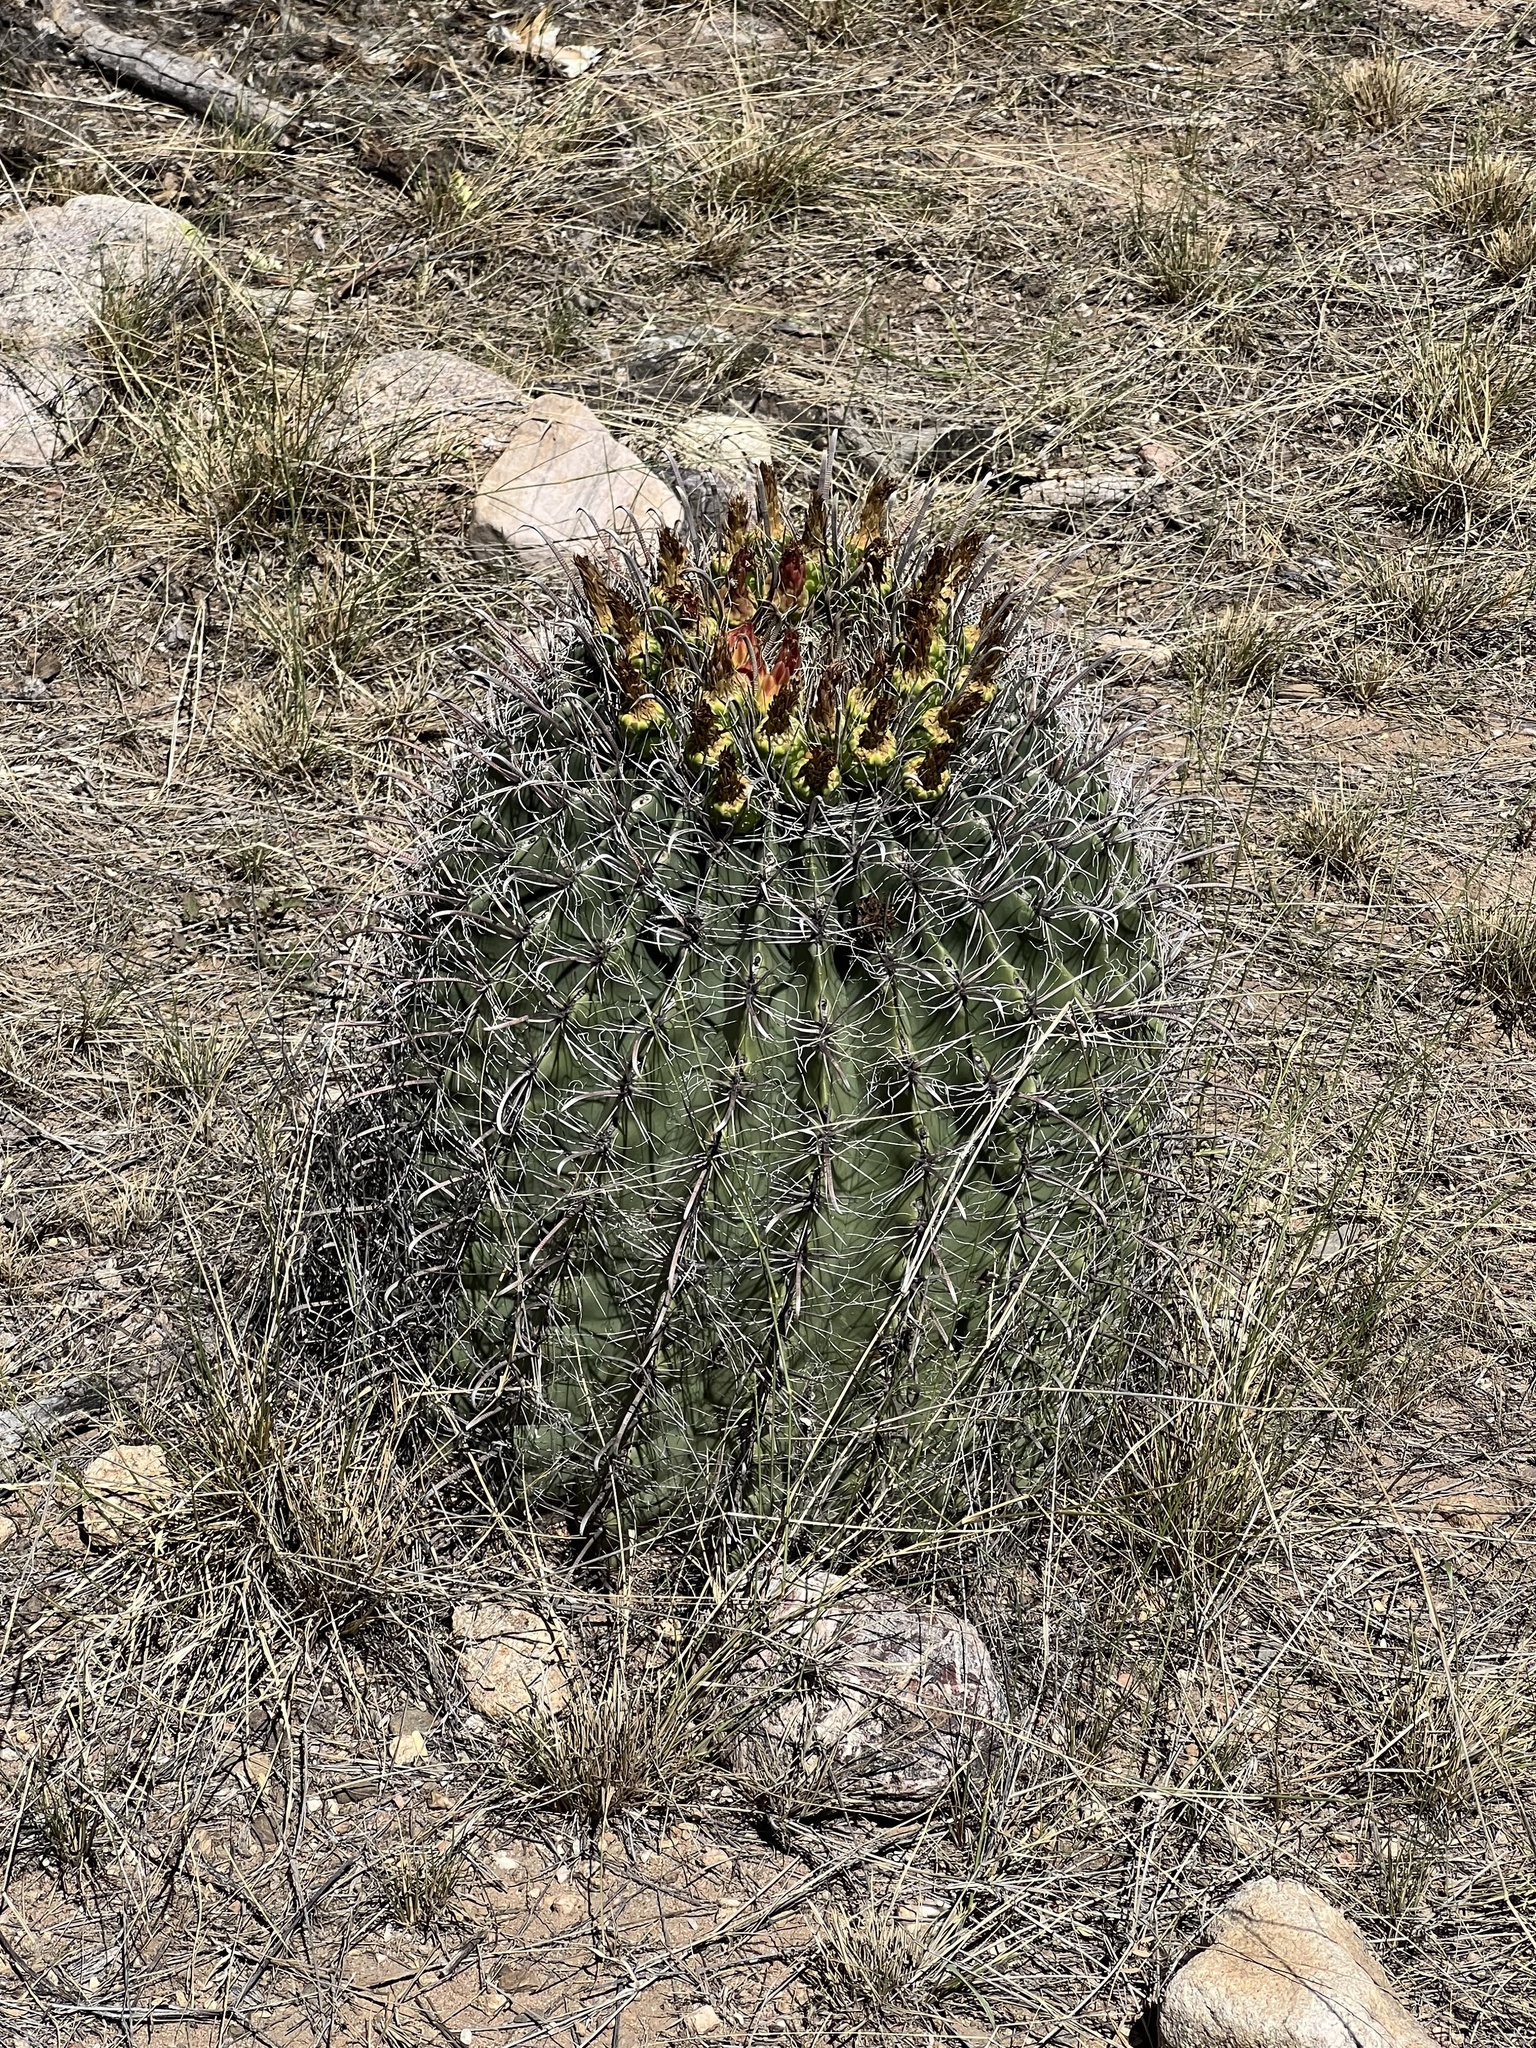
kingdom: Plantae
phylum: Tracheophyta
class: Magnoliopsida
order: Caryophyllales
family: Cactaceae
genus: Ferocactus
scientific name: Ferocactus wislizeni
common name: Candy barrel cactus
